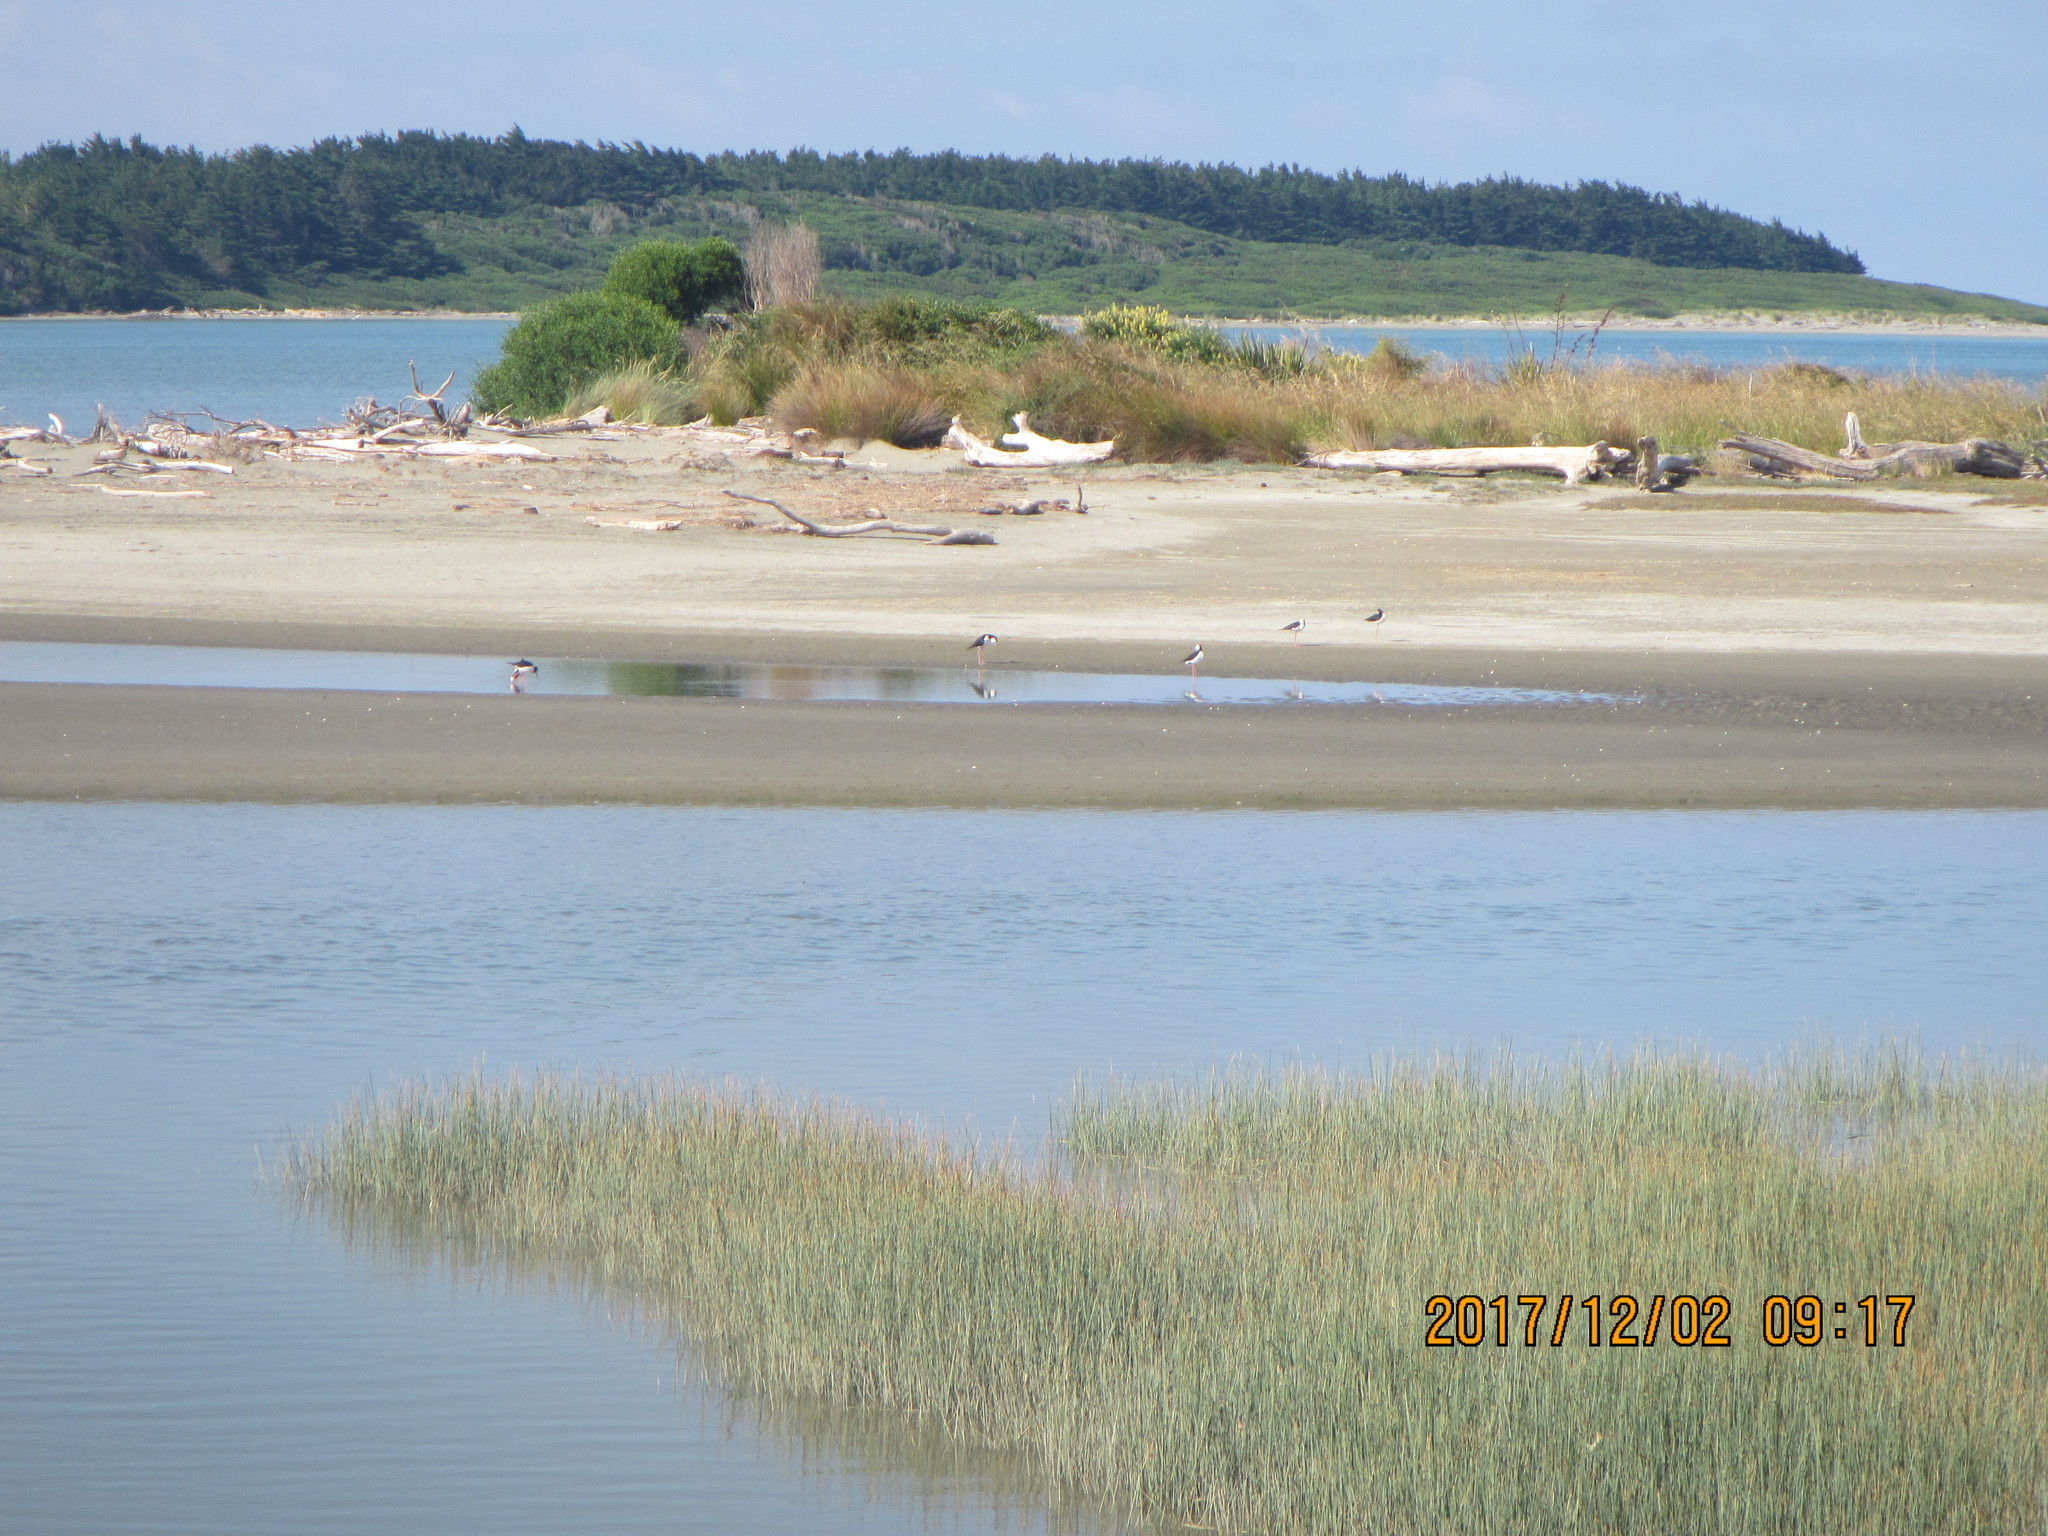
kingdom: Animalia
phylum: Chordata
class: Aves
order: Charadriiformes
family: Recurvirostridae
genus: Himantopus
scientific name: Himantopus leucocephalus
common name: White-headed stilt
